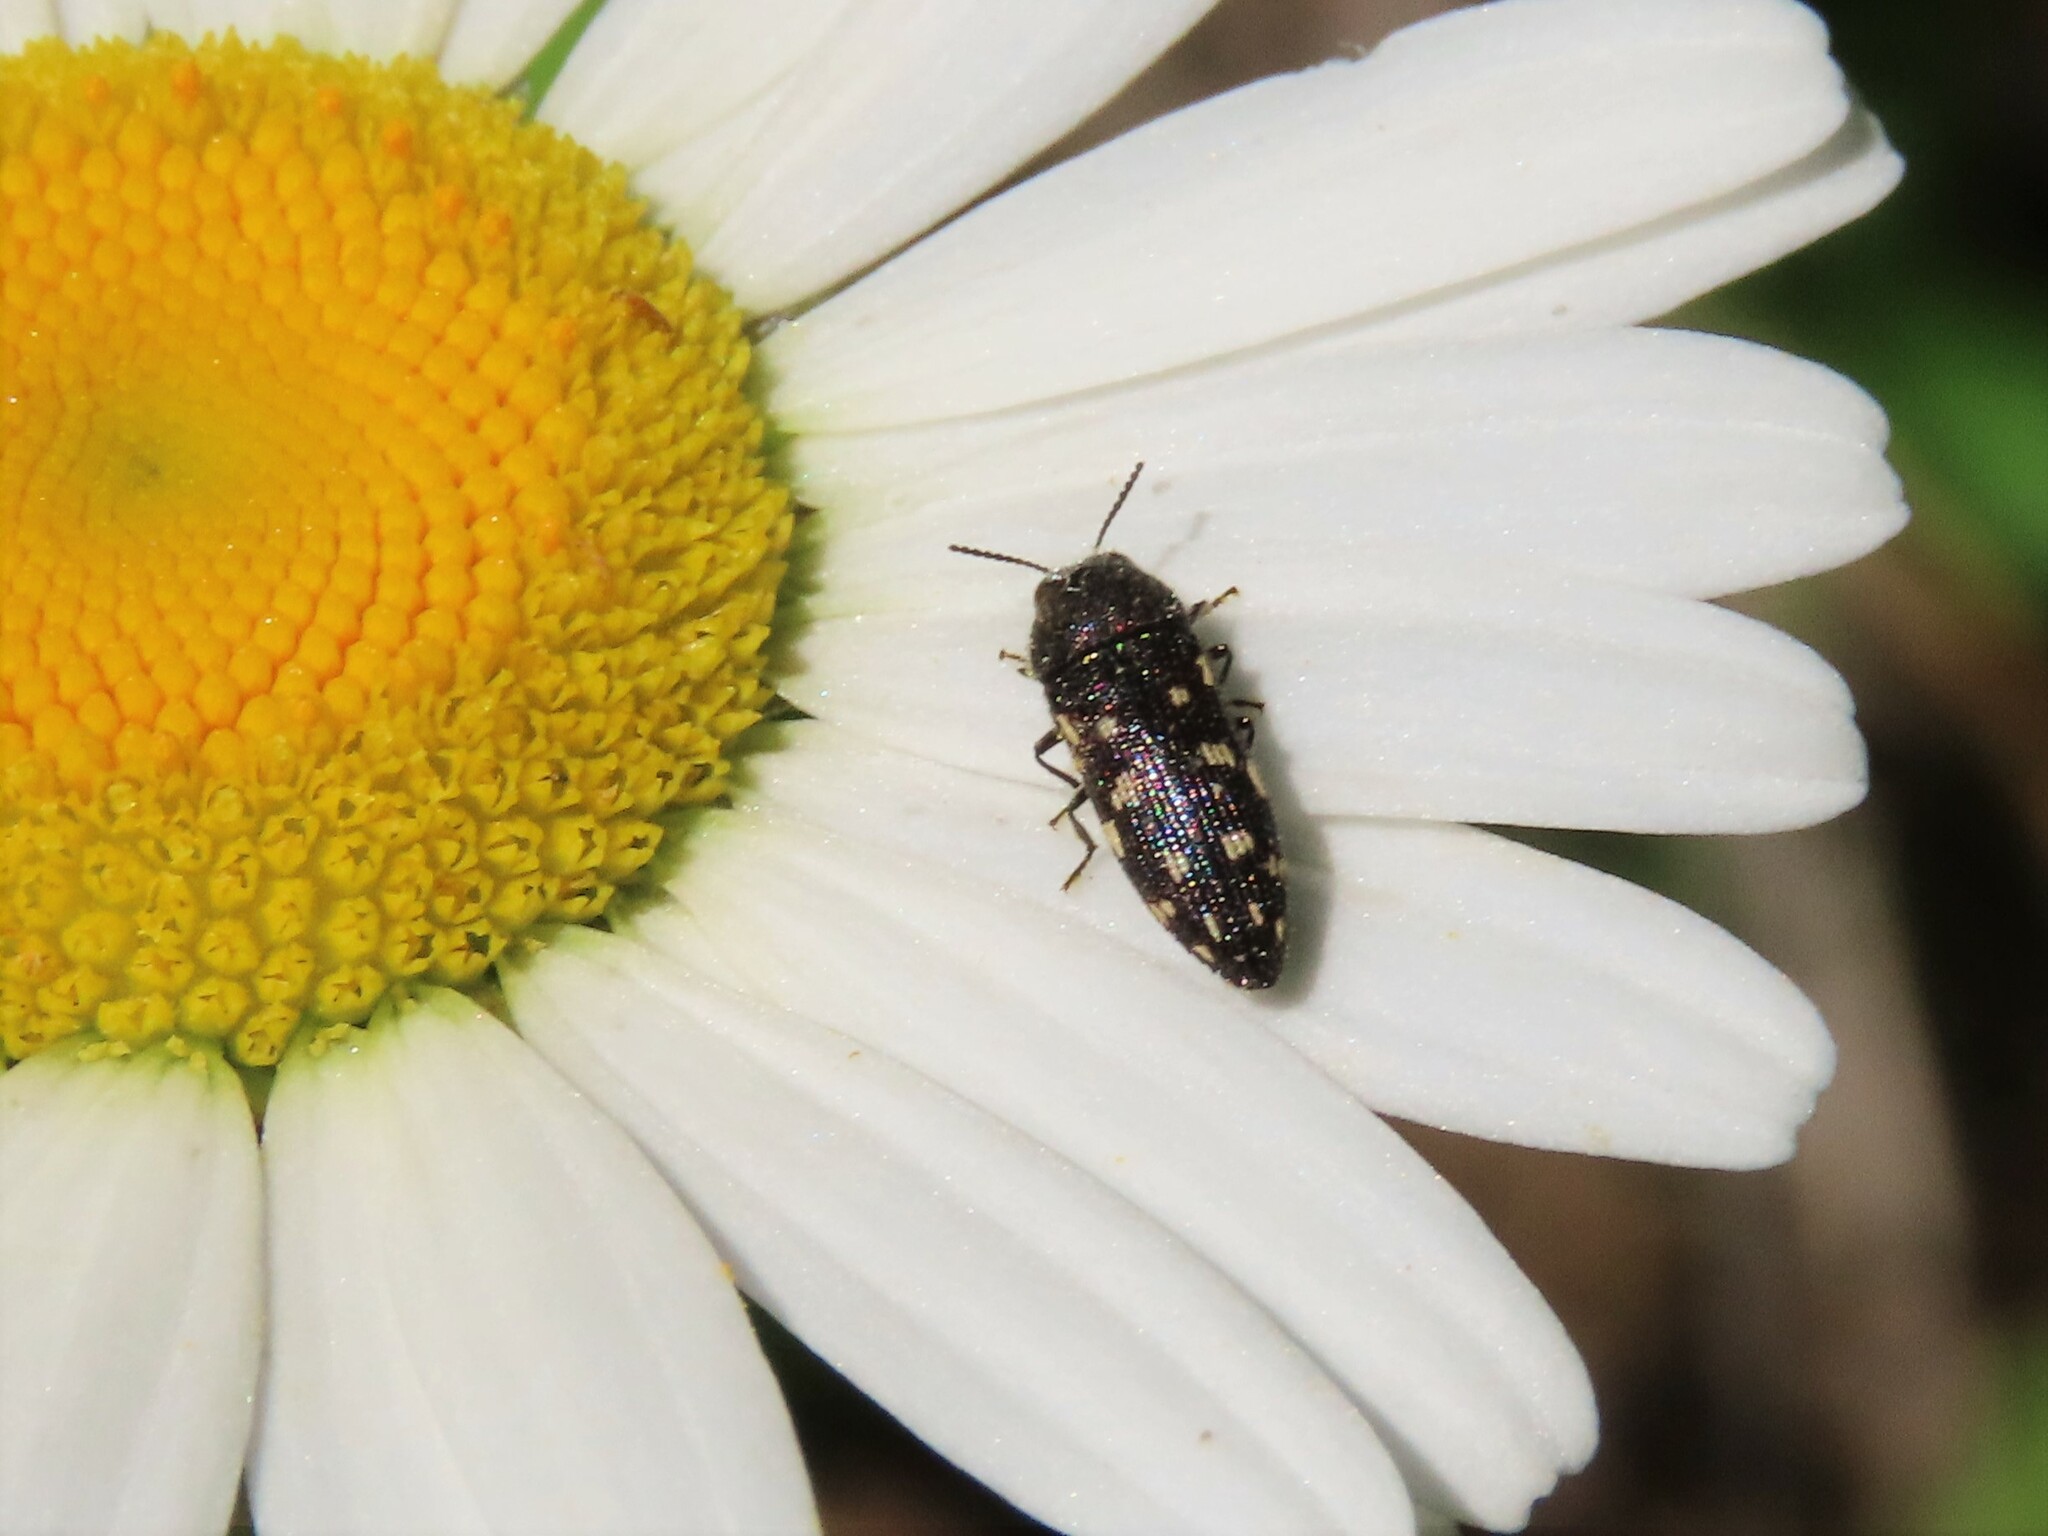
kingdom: Animalia
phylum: Arthropoda
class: Insecta
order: Coleoptera
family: Buprestidae
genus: Acmaeodera
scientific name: Acmaeodera tubulus
